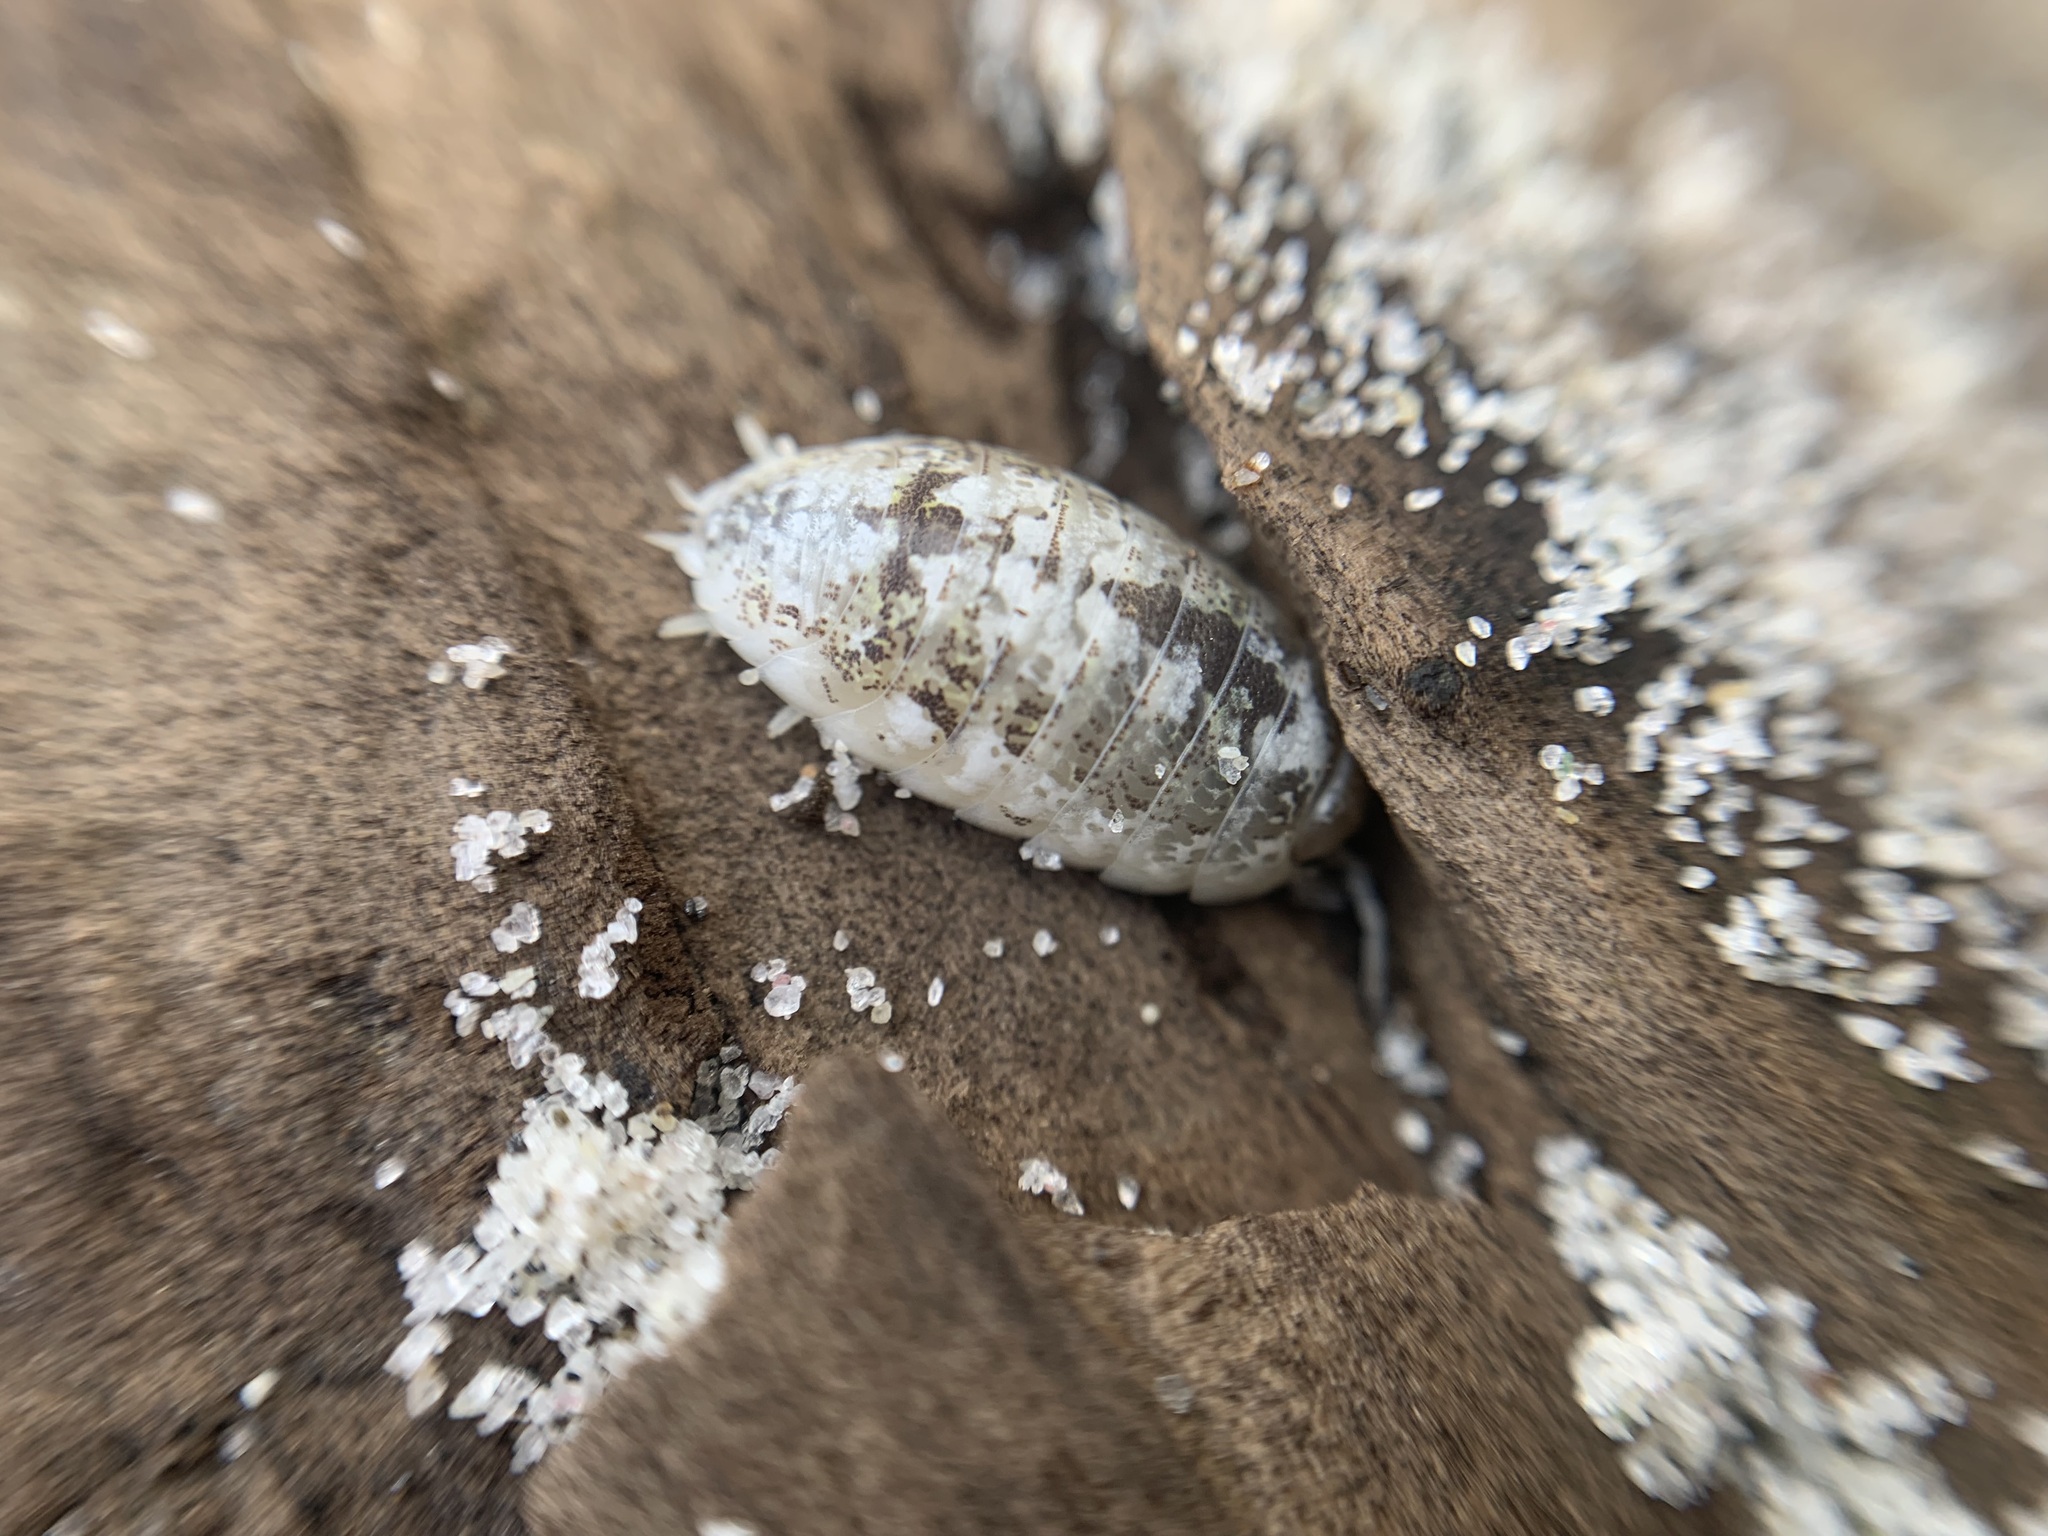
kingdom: Animalia
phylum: Arthropoda
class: Malacostraca
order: Isopoda
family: Alloniscidae
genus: Alloniscus
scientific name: Alloniscus perconvexus
